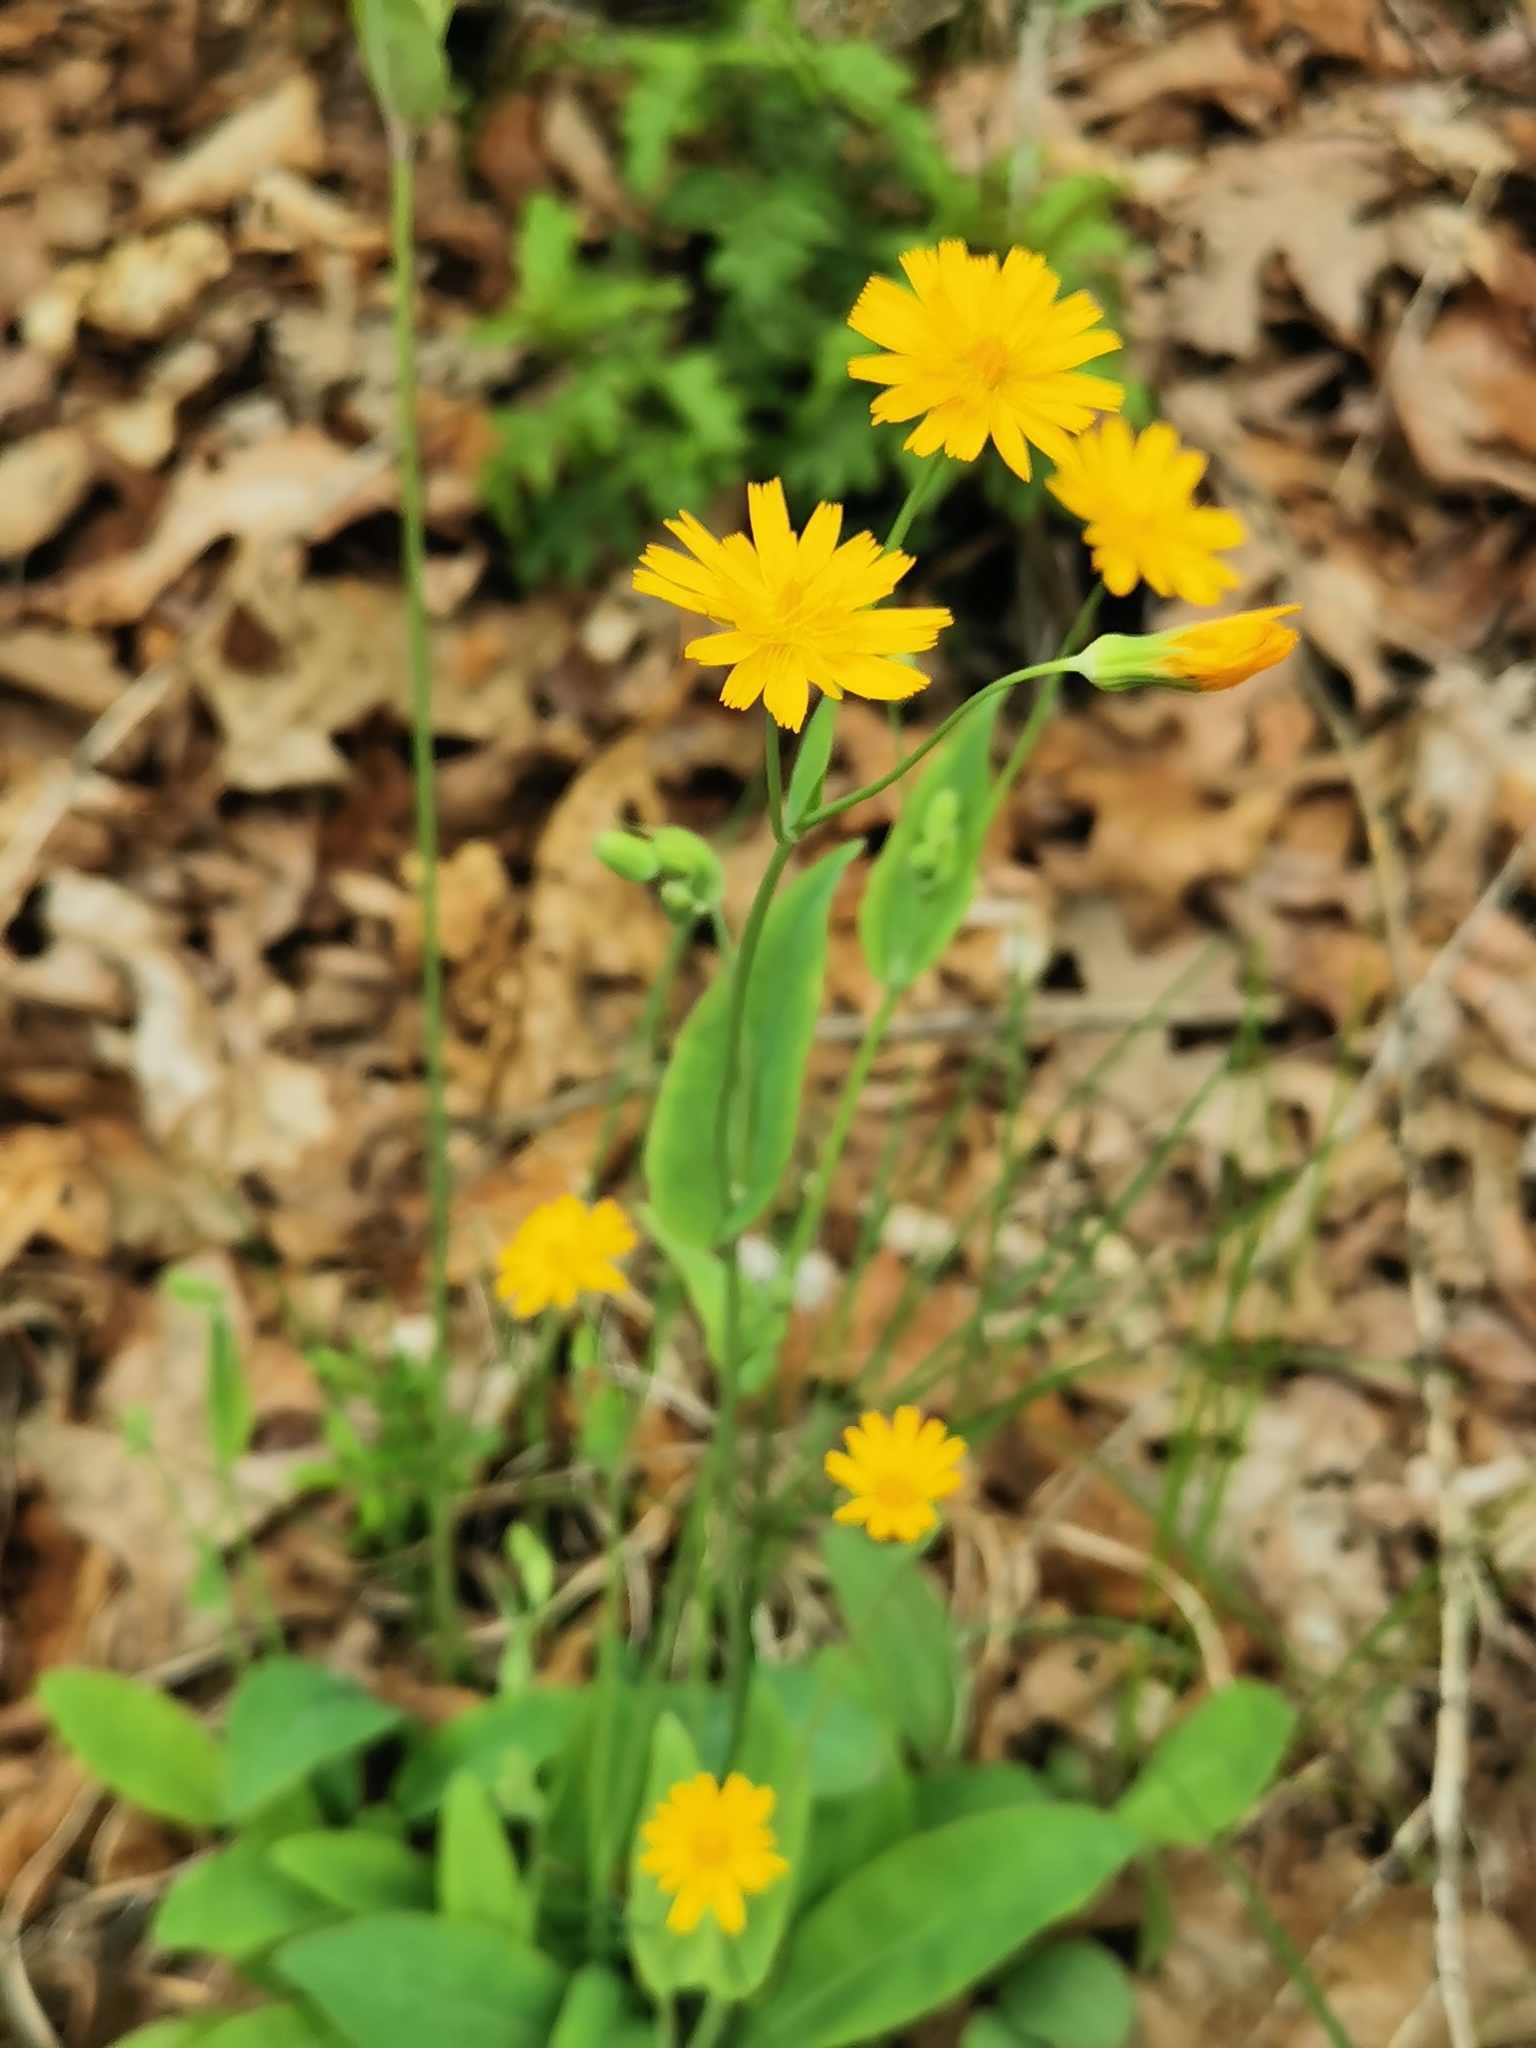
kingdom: Plantae
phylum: Tracheophyta
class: Magnoliopsida
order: Asterales
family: Asteraceae
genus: Krigia
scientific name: Krigia biflora
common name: Orange dwarf-dandelion
